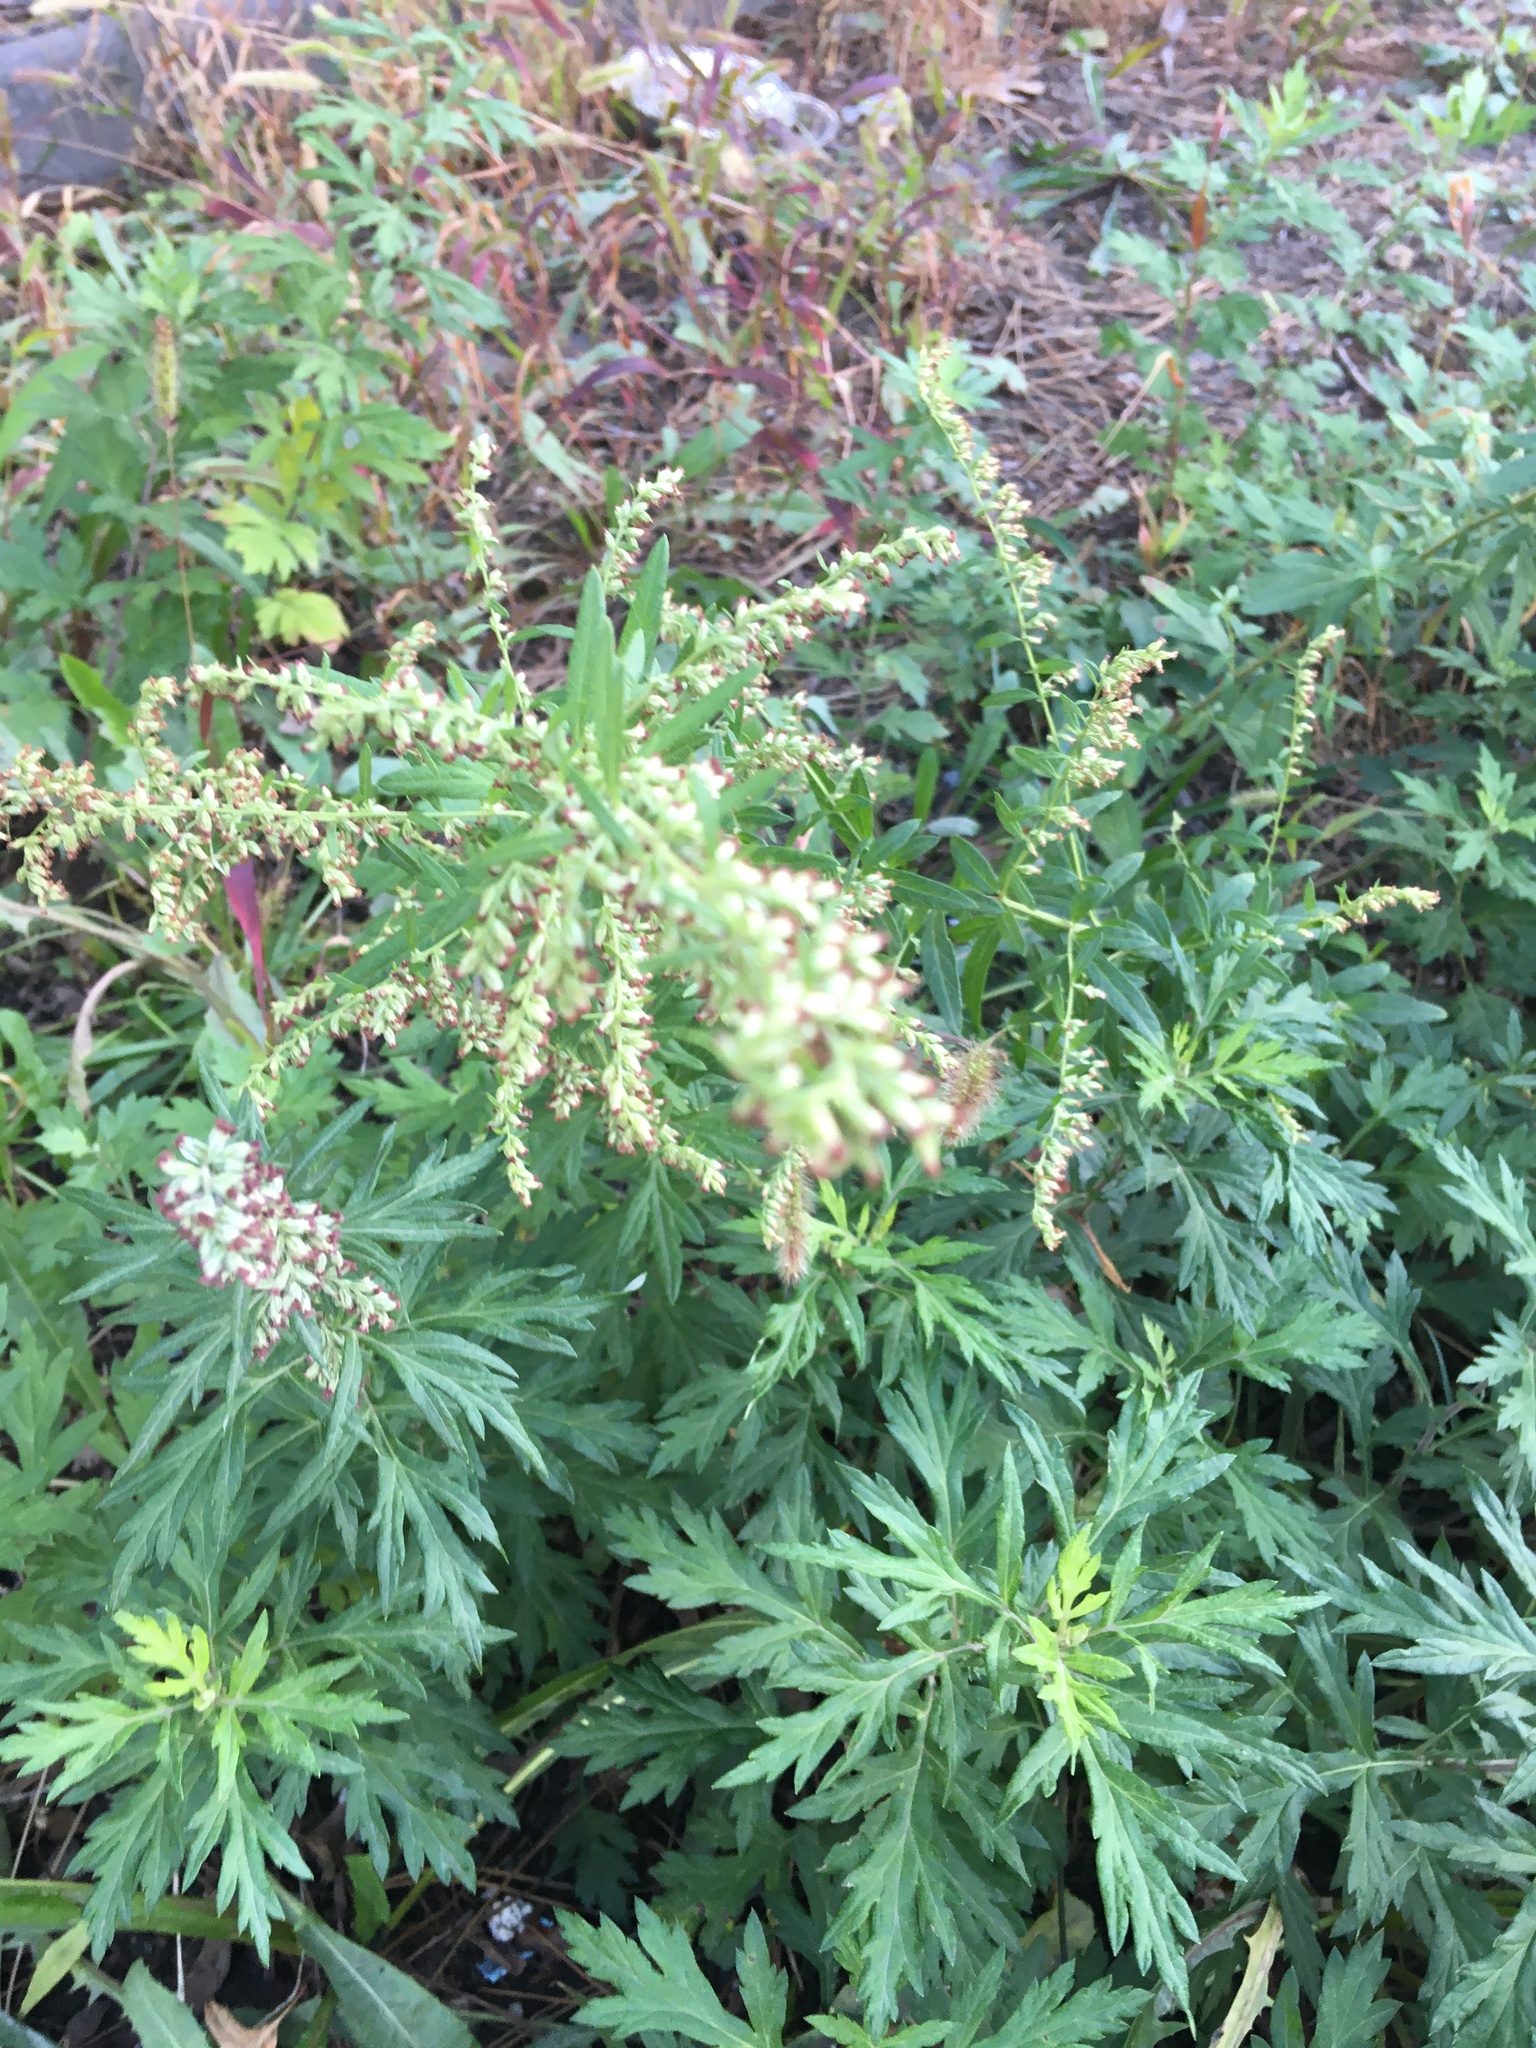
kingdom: Plantae
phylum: Tracheophyta
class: Magnoliopsida
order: Asterales
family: Asteraceae
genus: Artemisia
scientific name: Artemisia vulgaris
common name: Mugwort
